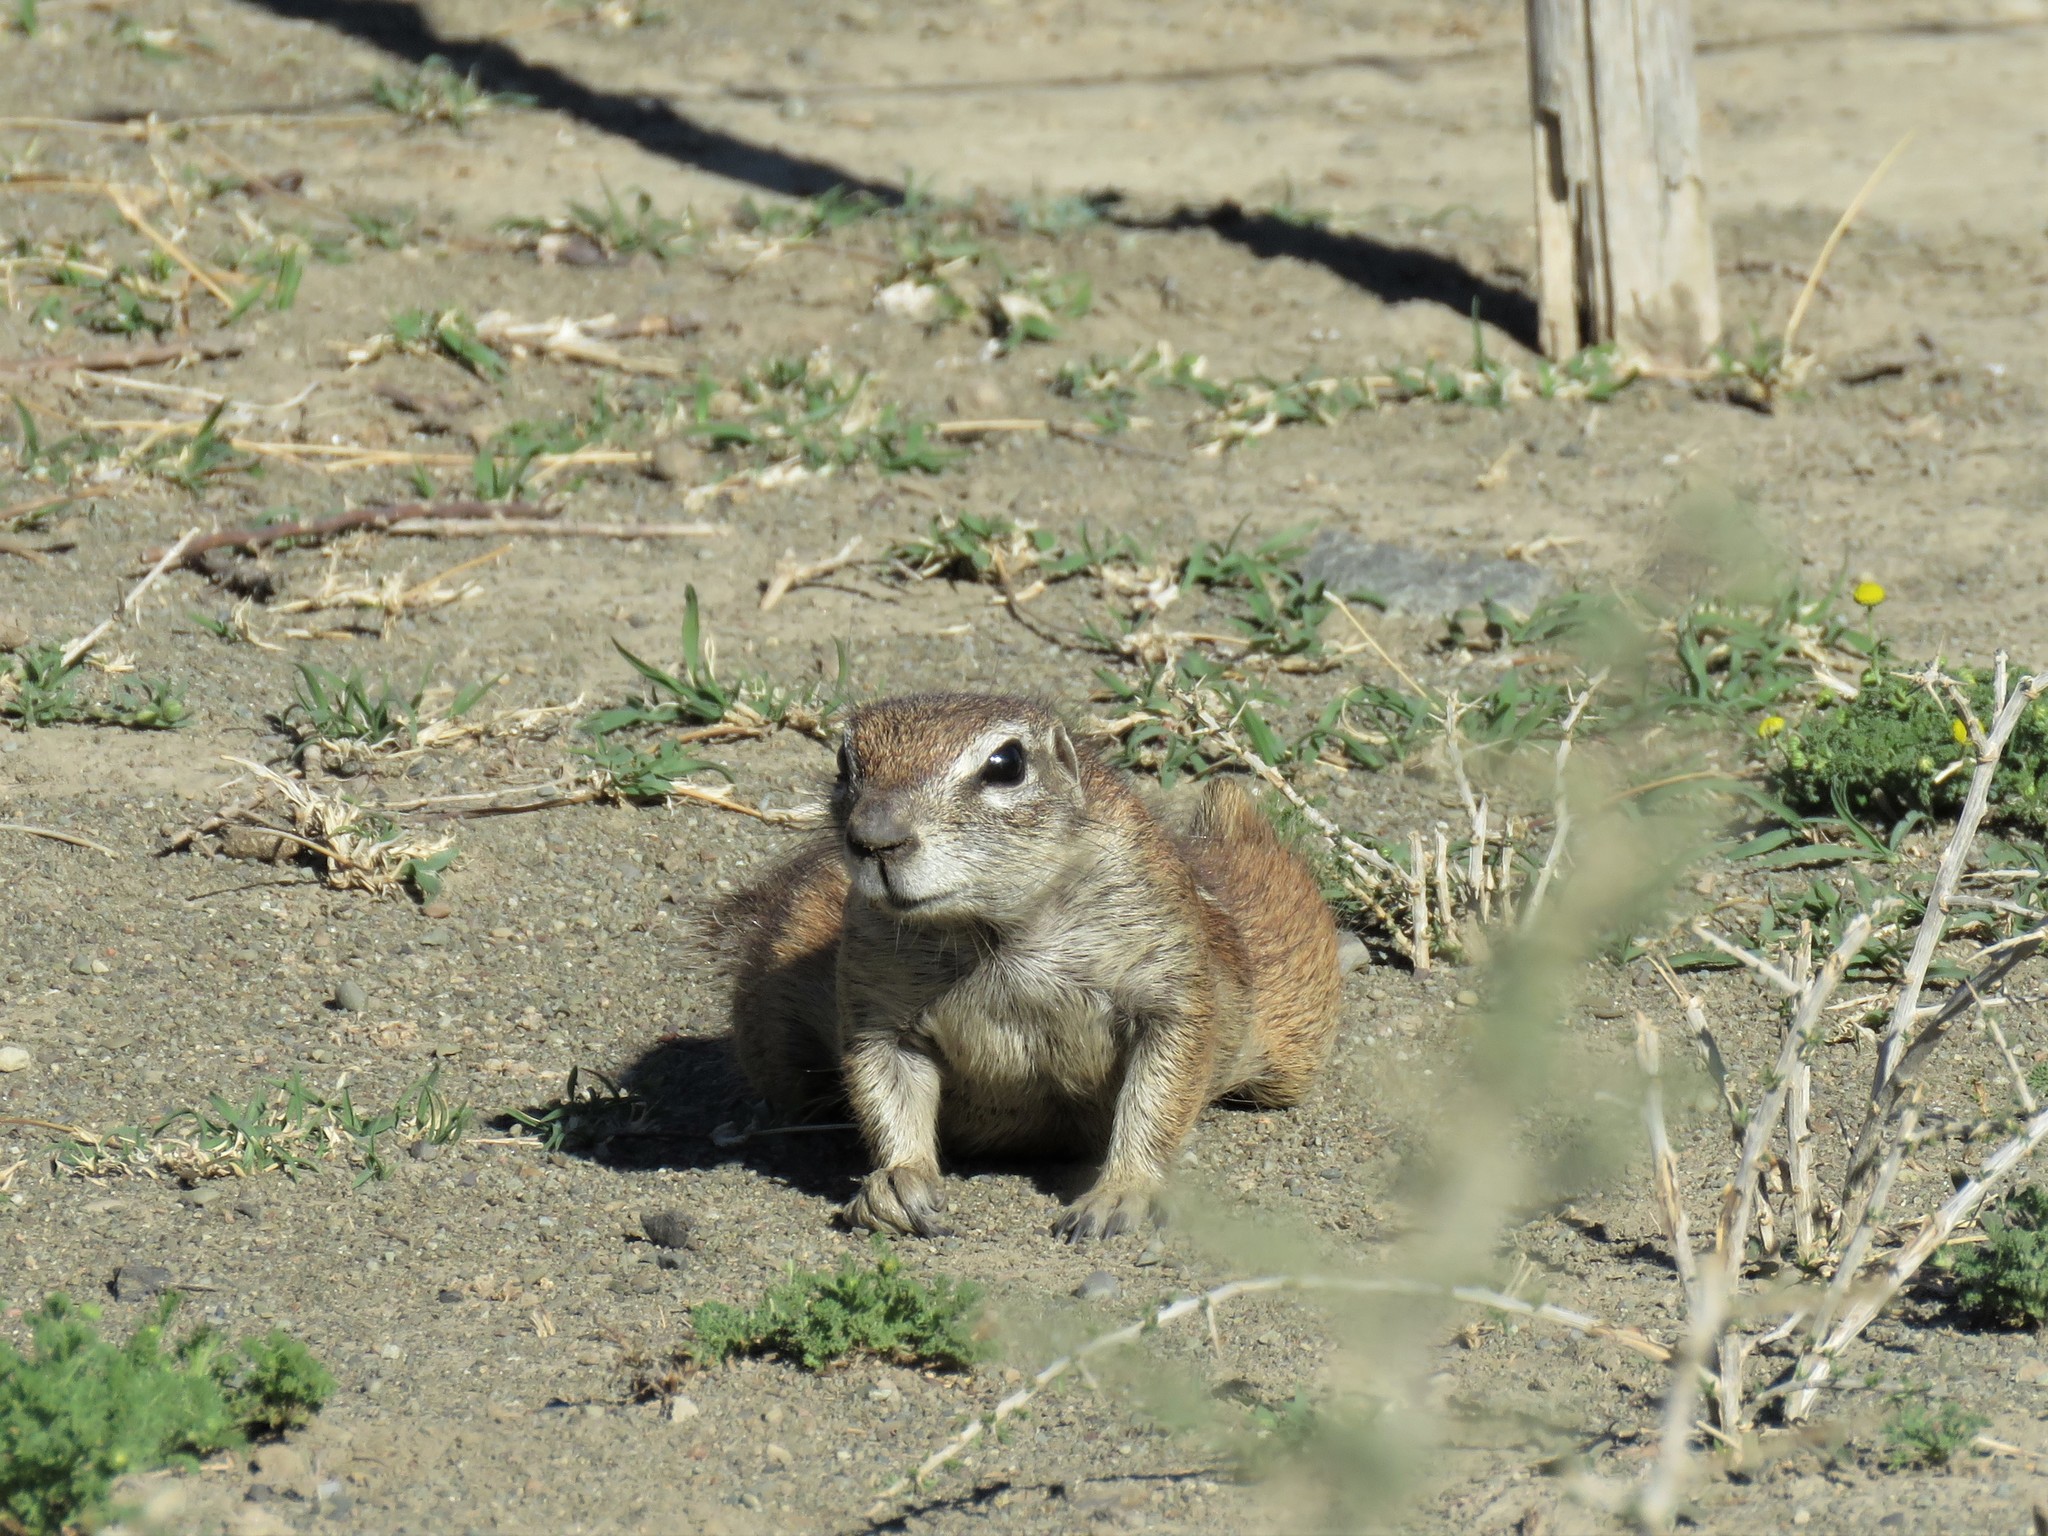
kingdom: Animalia
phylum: Chordata
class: Mammalia
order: Rodentia
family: Sciuridae
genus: Xerus
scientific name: Xerus inauris
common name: South african ground squirrel
